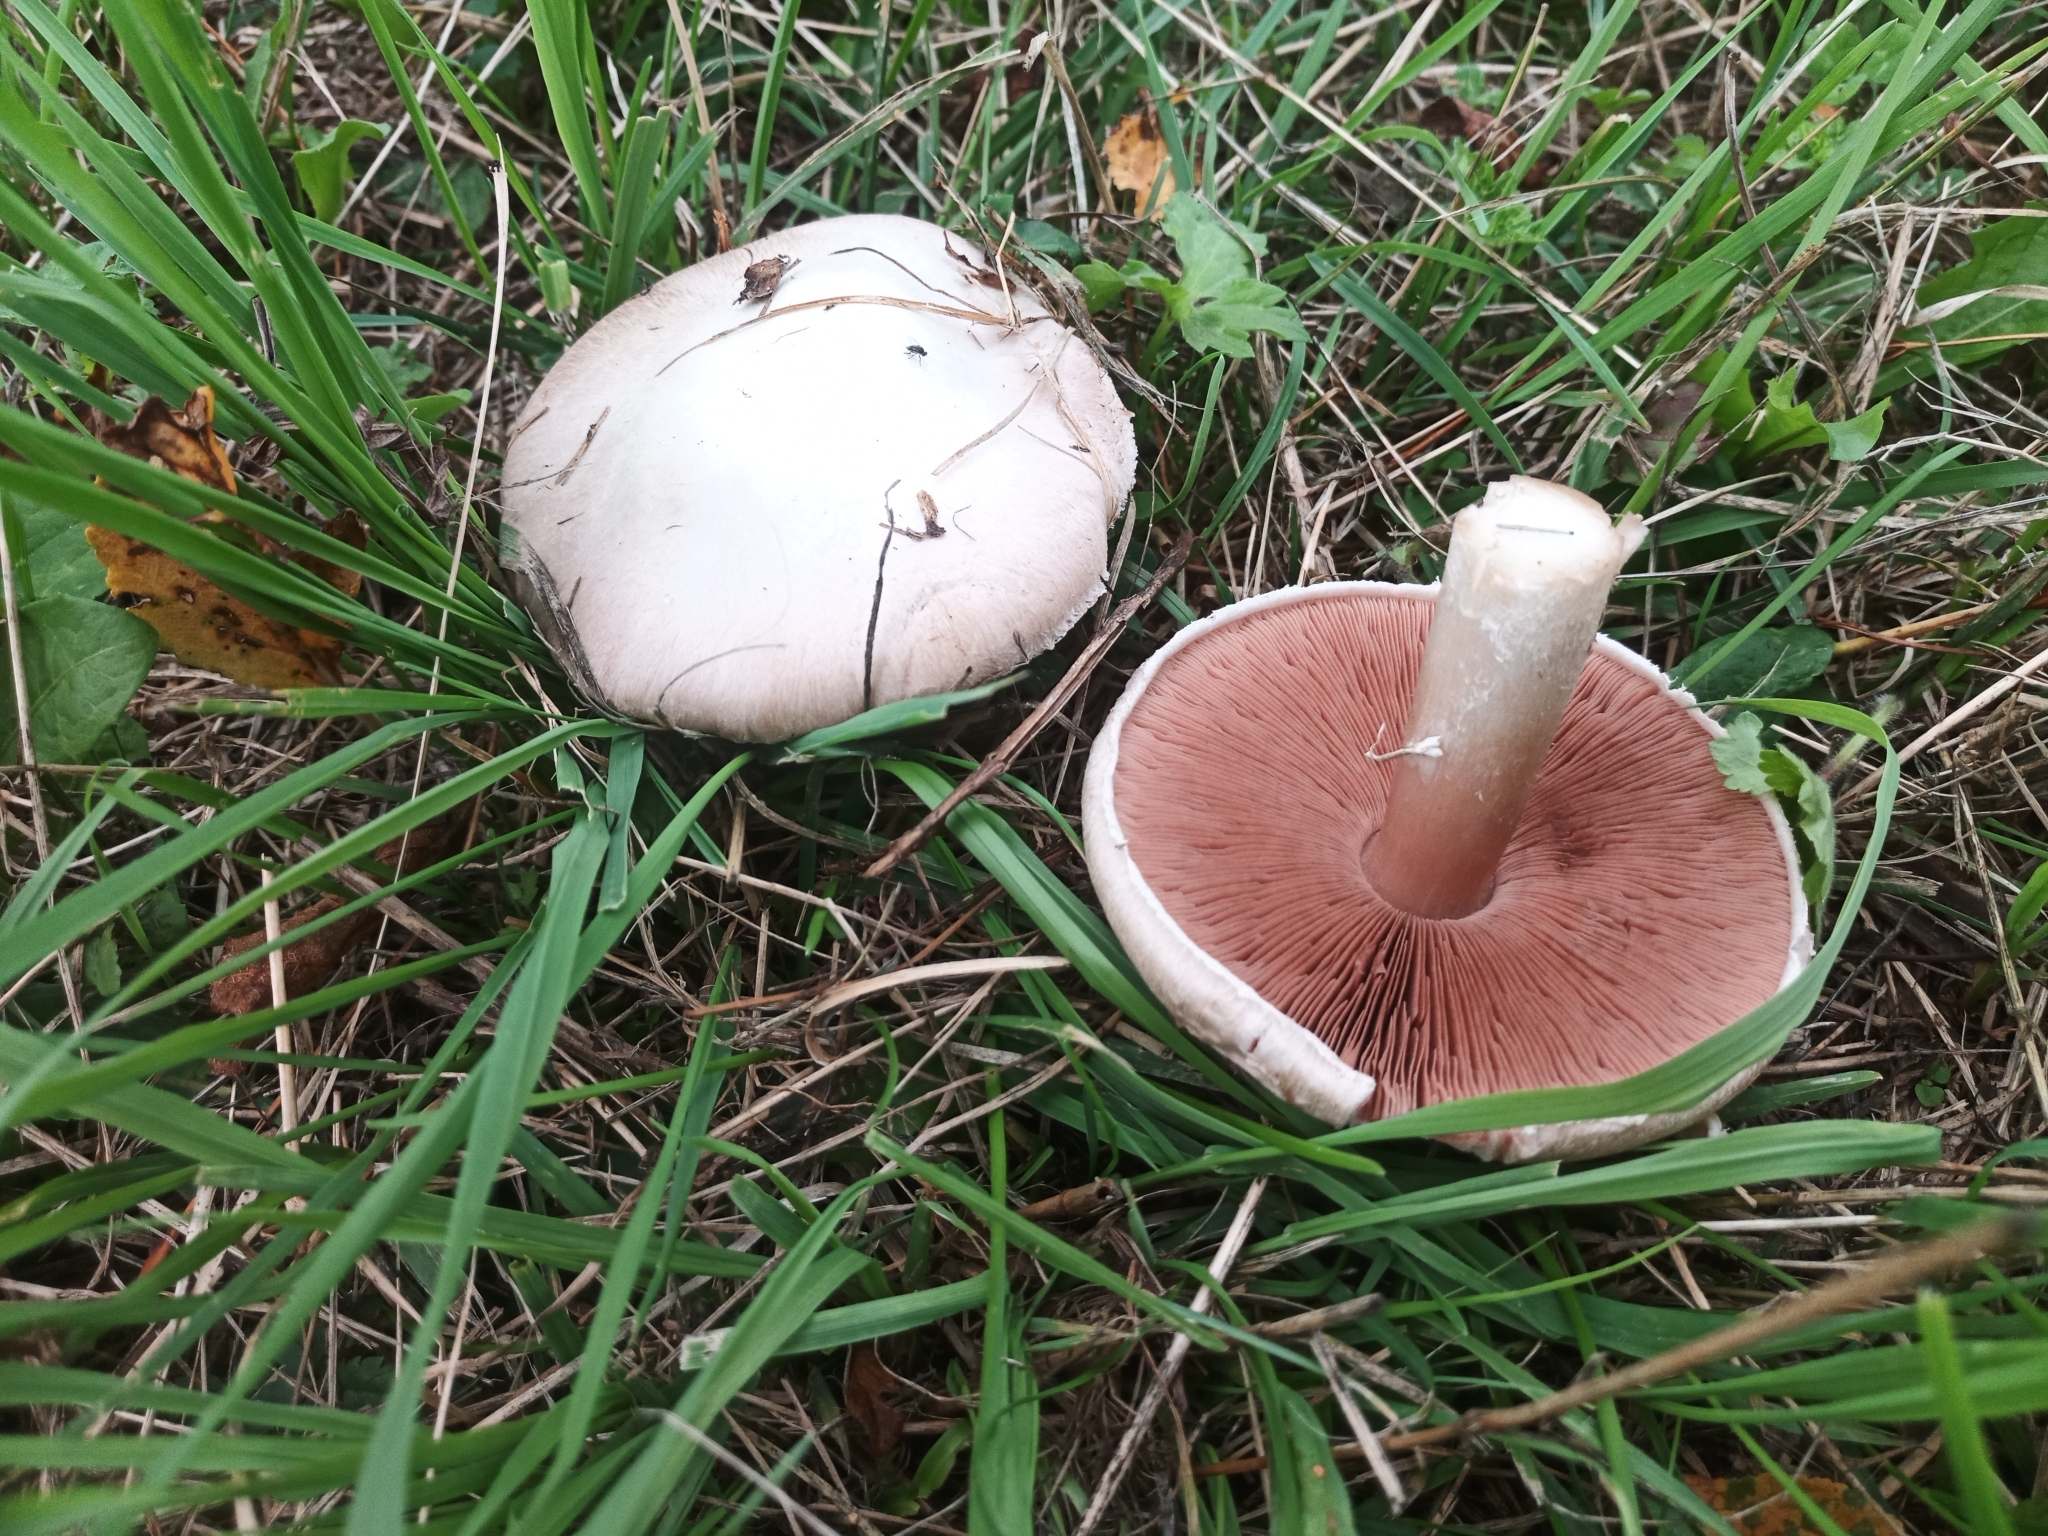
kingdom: Fungi
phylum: Basidiomycota
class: Agaricomycetes
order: Agaricales
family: Agaricaceae
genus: Agaricus
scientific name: Agaricus campestris
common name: Field mushroom
